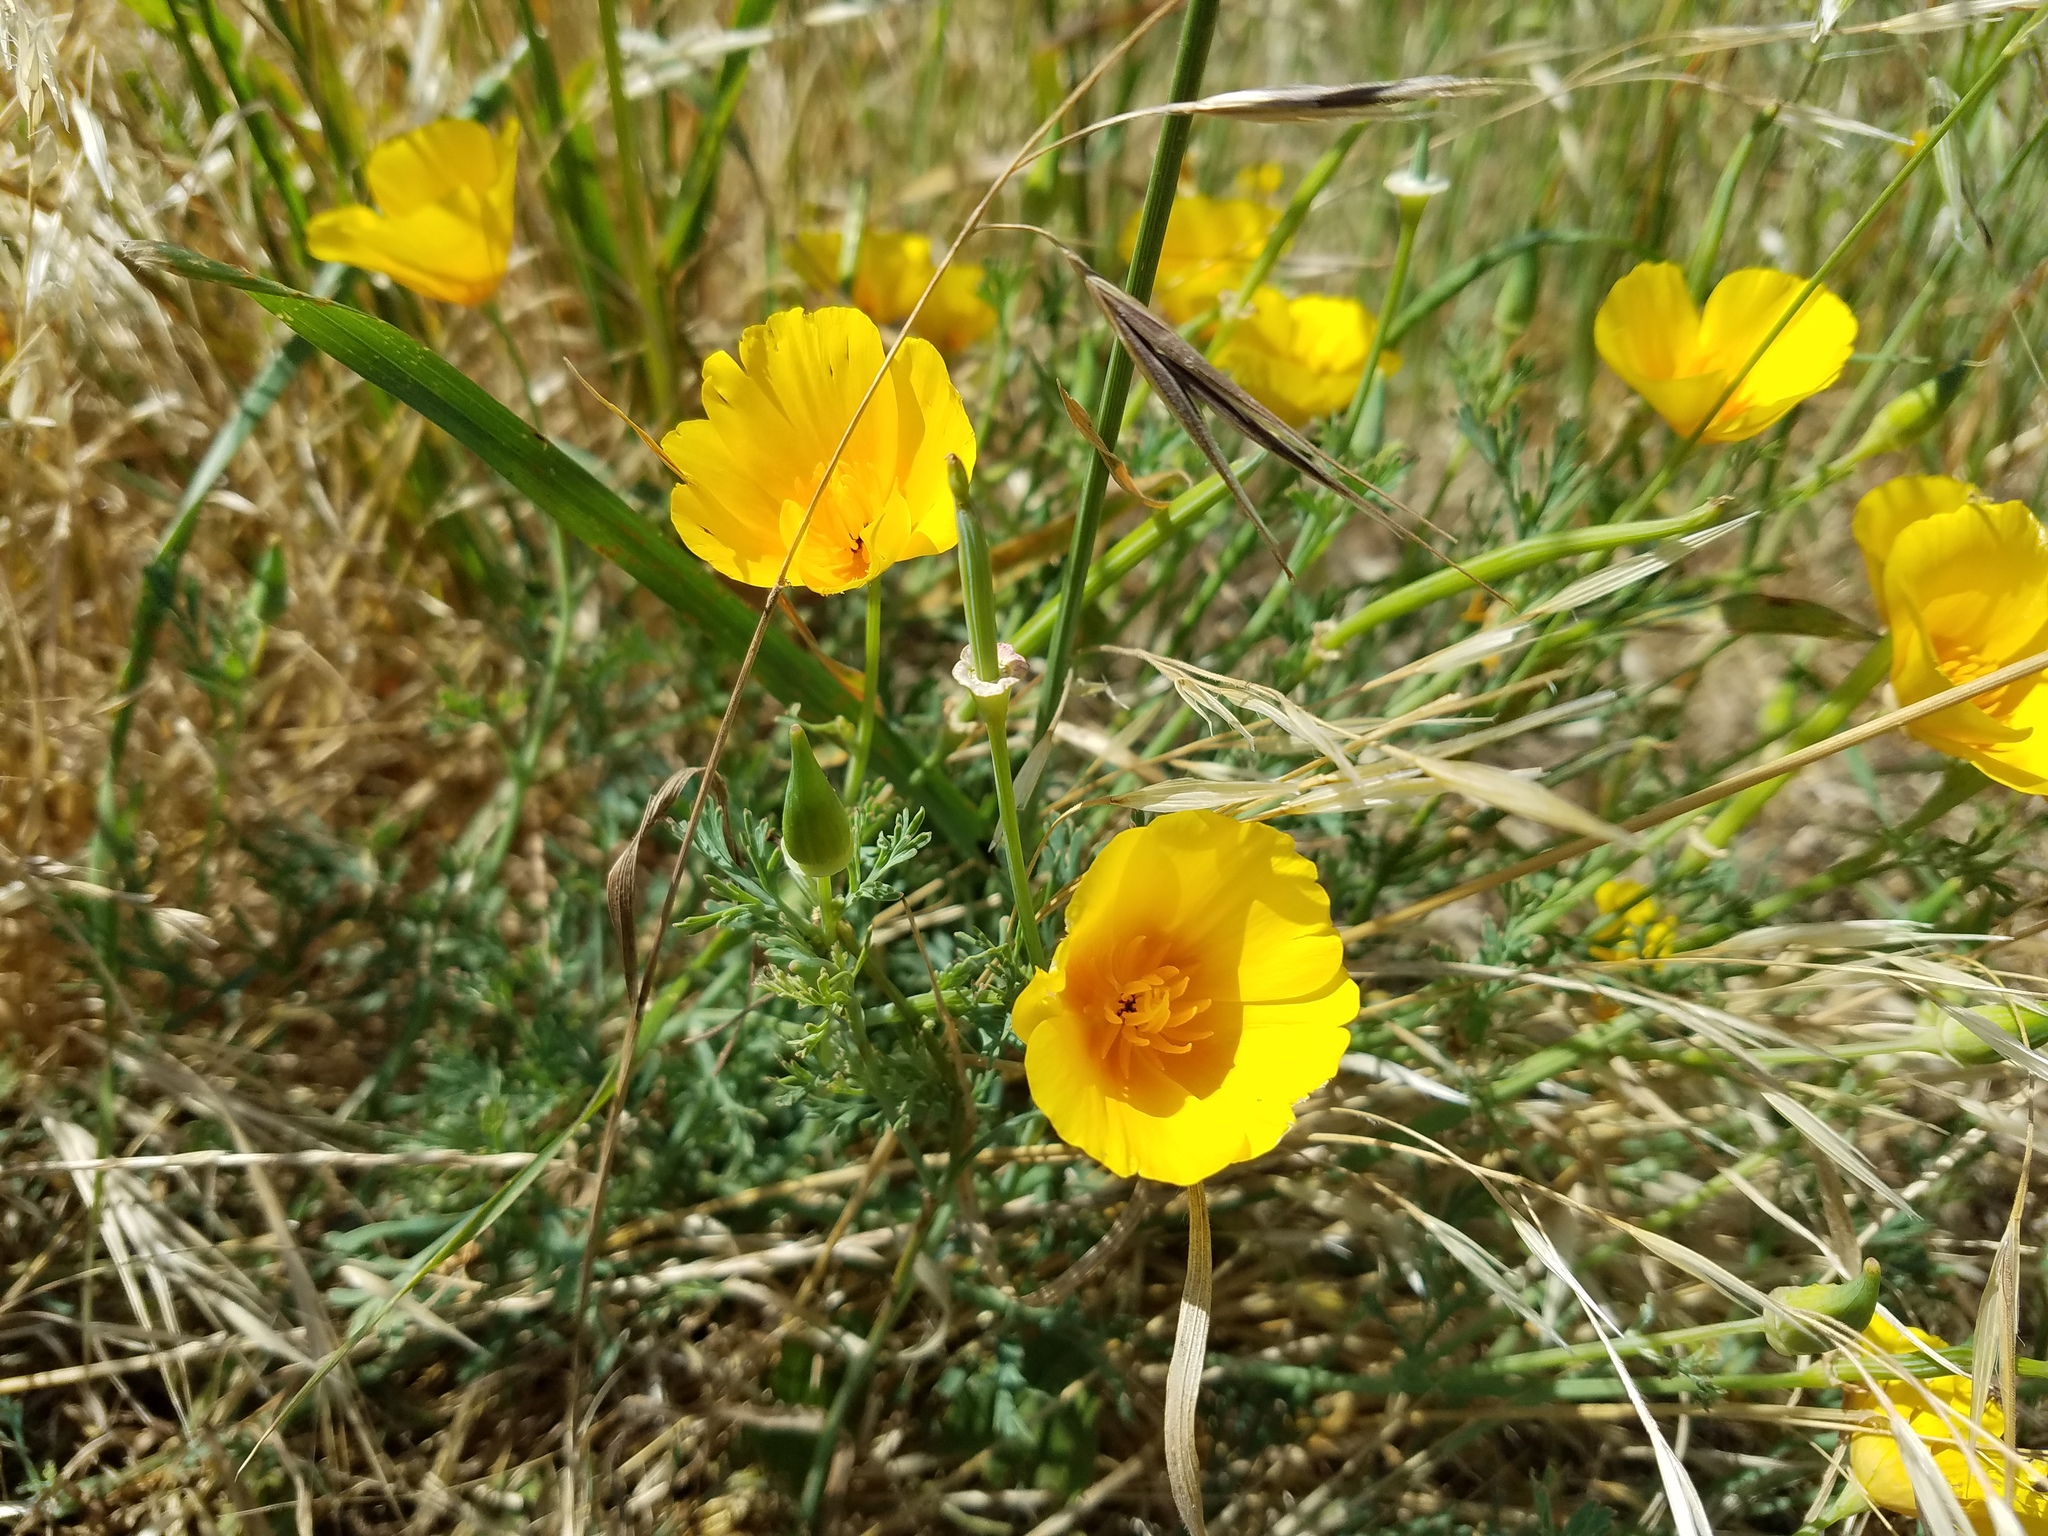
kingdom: Plantae
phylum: Tracheophyta
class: Magnoliopsida
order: Ranunculales
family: Papaveraceae
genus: Eschscholzia
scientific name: Eschscholzia californica
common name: California poppy
